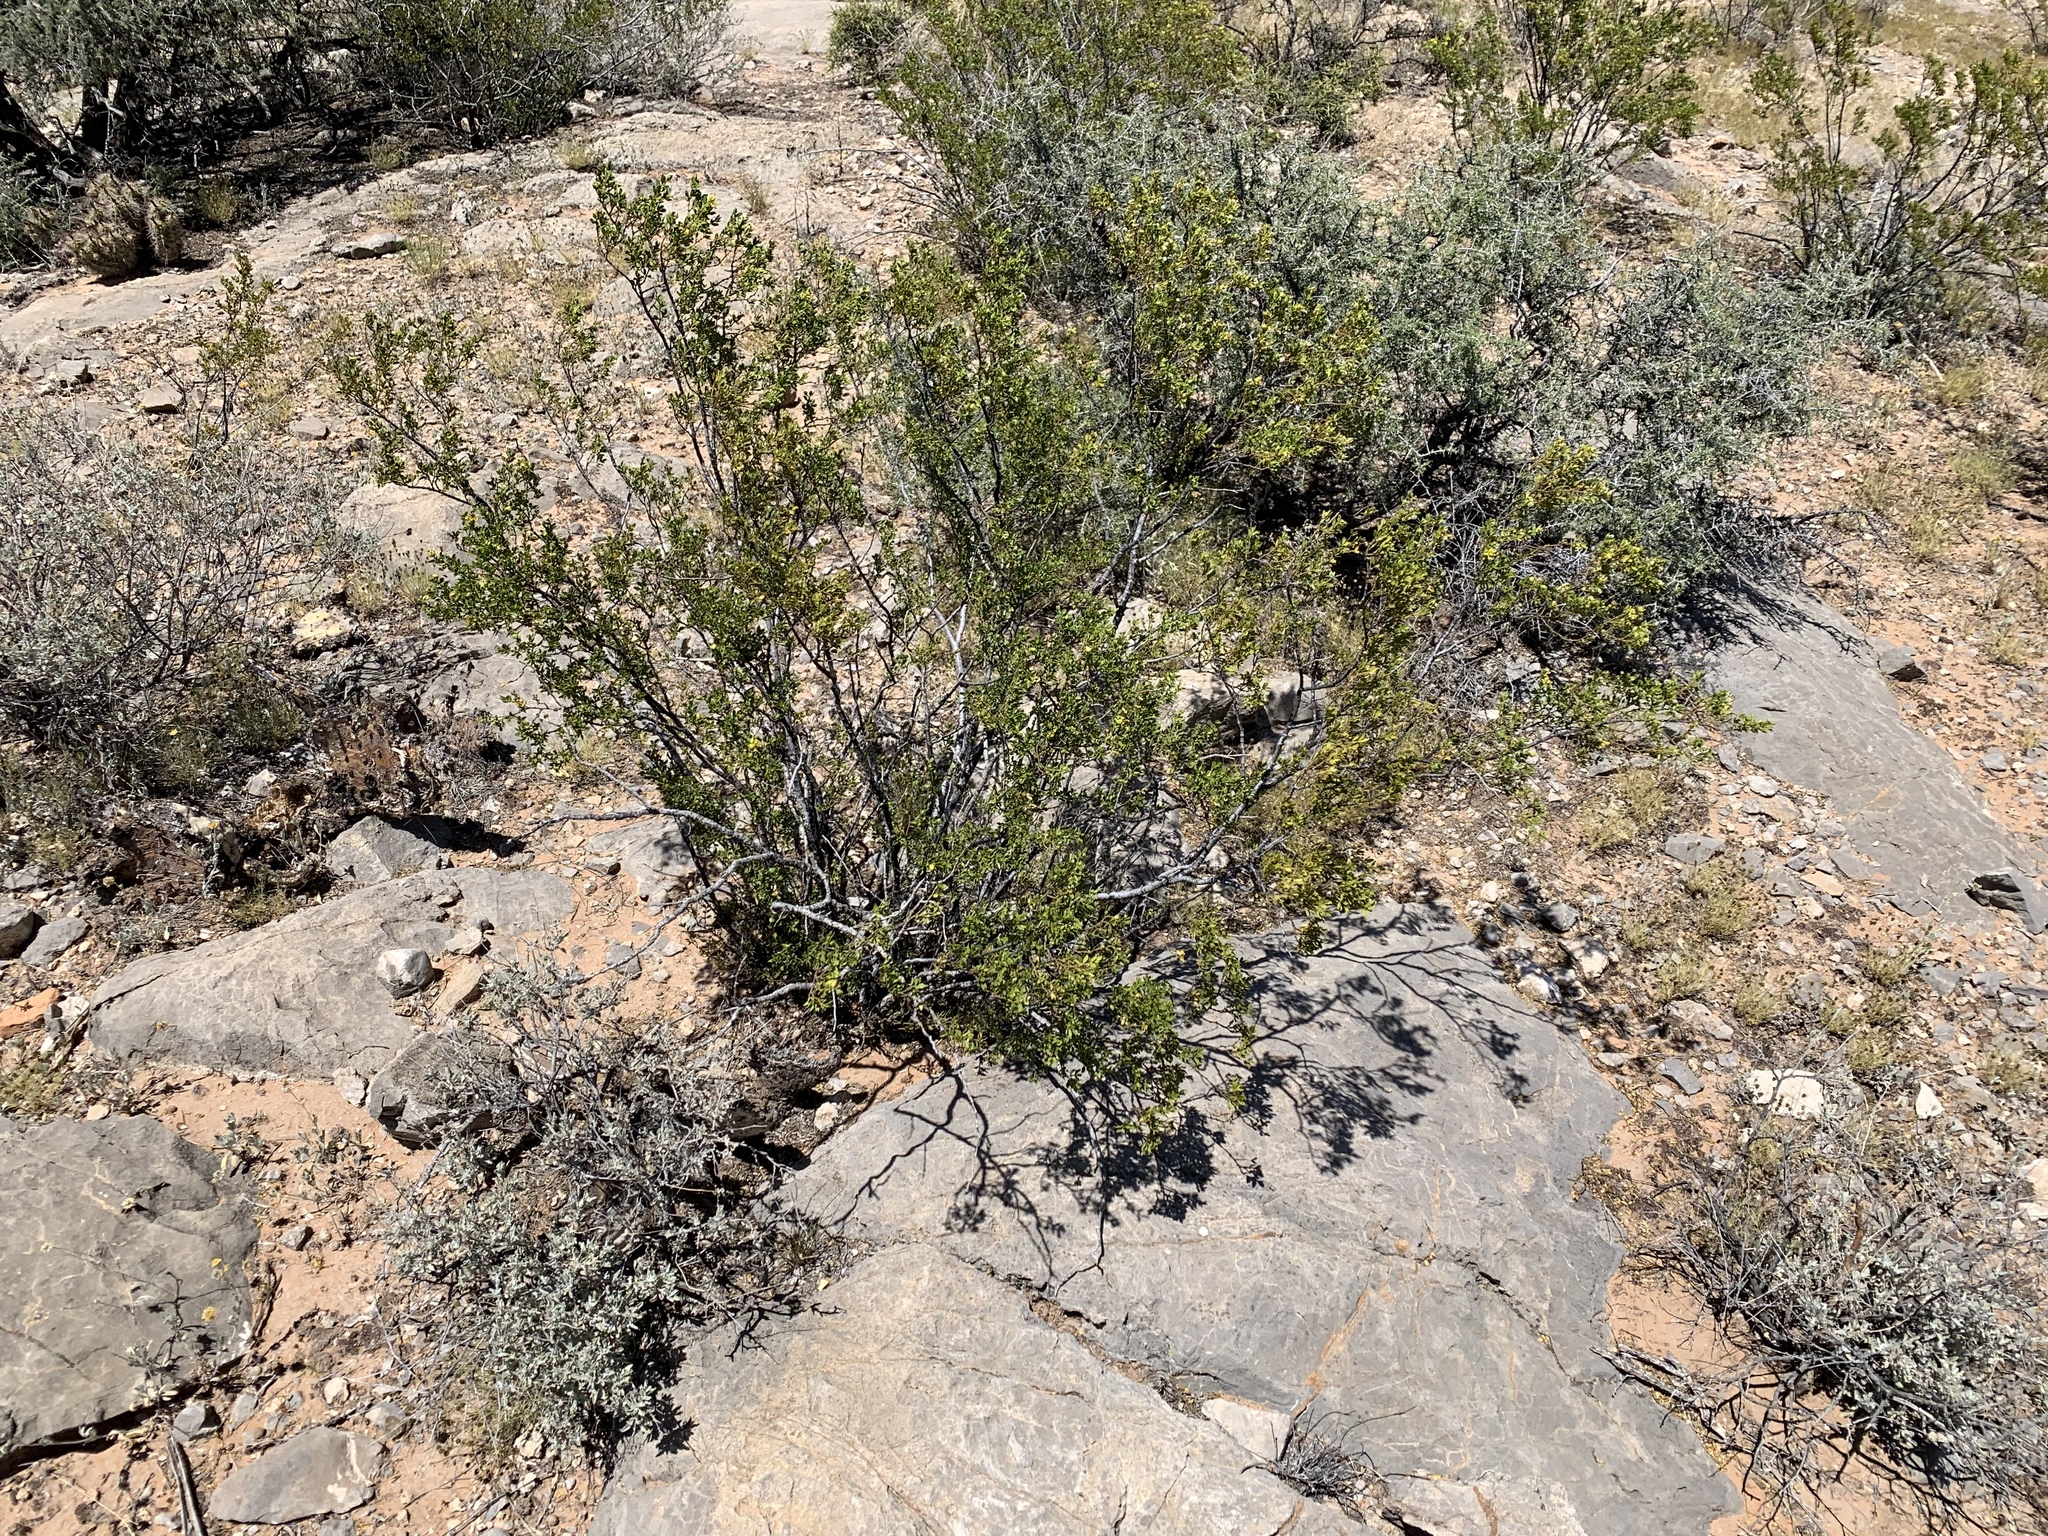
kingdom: Plantae
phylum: Tracheophyta
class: Magnoliopsida
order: Zygophyllales
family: Zygophyllaceae
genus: Larrea
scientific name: Larrea tridentata
